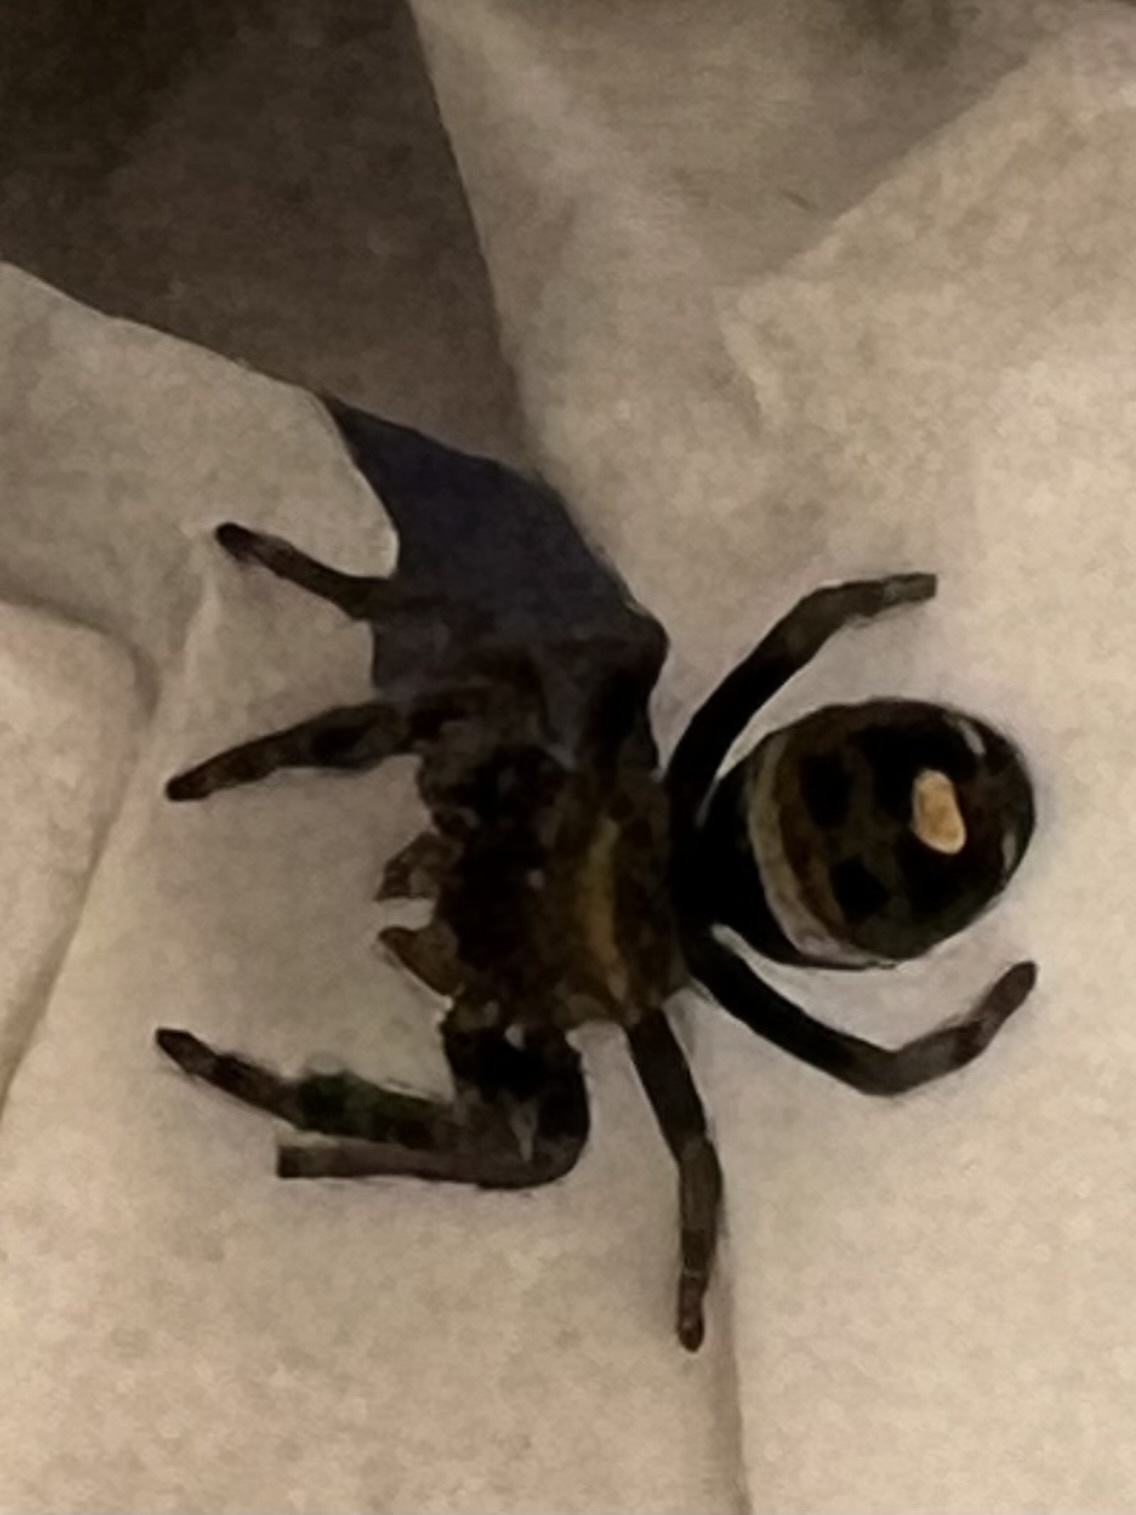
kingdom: Animalia
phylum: Arthropoda
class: Arachnida
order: Araneae
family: Salticidae
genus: Phidippus
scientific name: Phidippus audax
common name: Bold jumper
